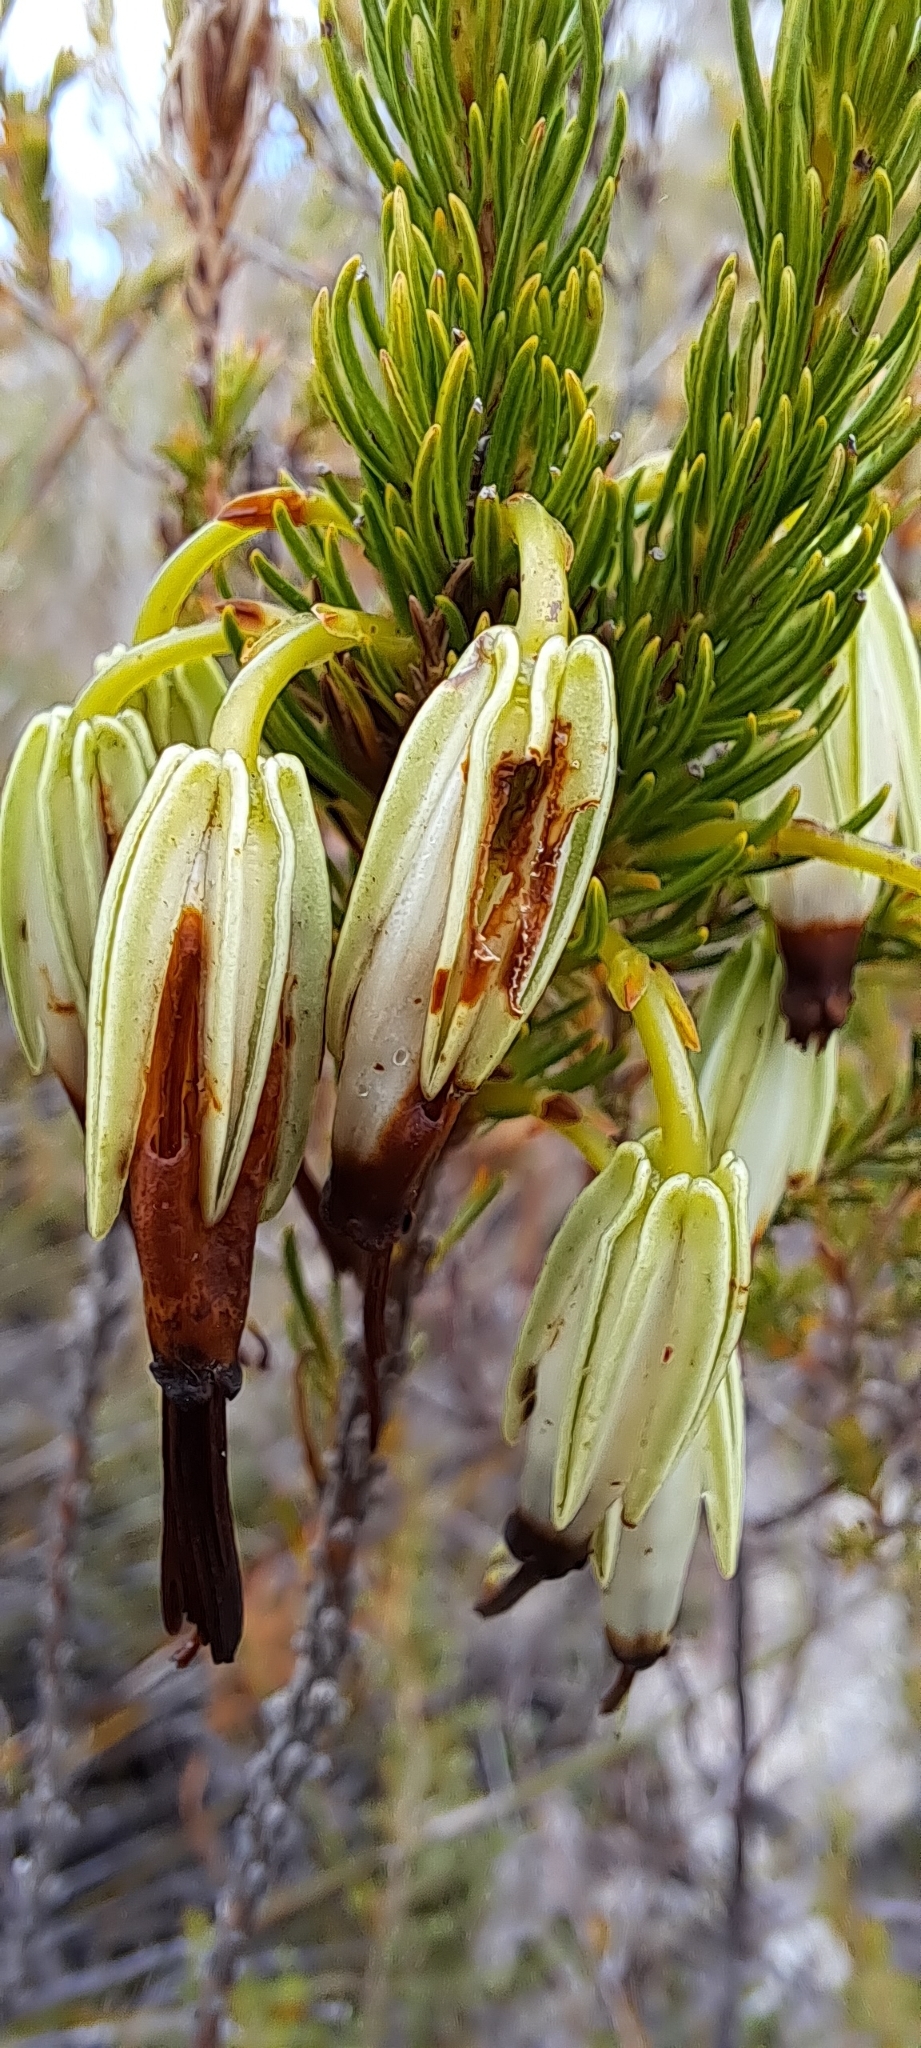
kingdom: Plantae
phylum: Tracheophyta
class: Magnoliopsida
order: Ericales
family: Ericaceae
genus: Erica
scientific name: Erica plukenetii
